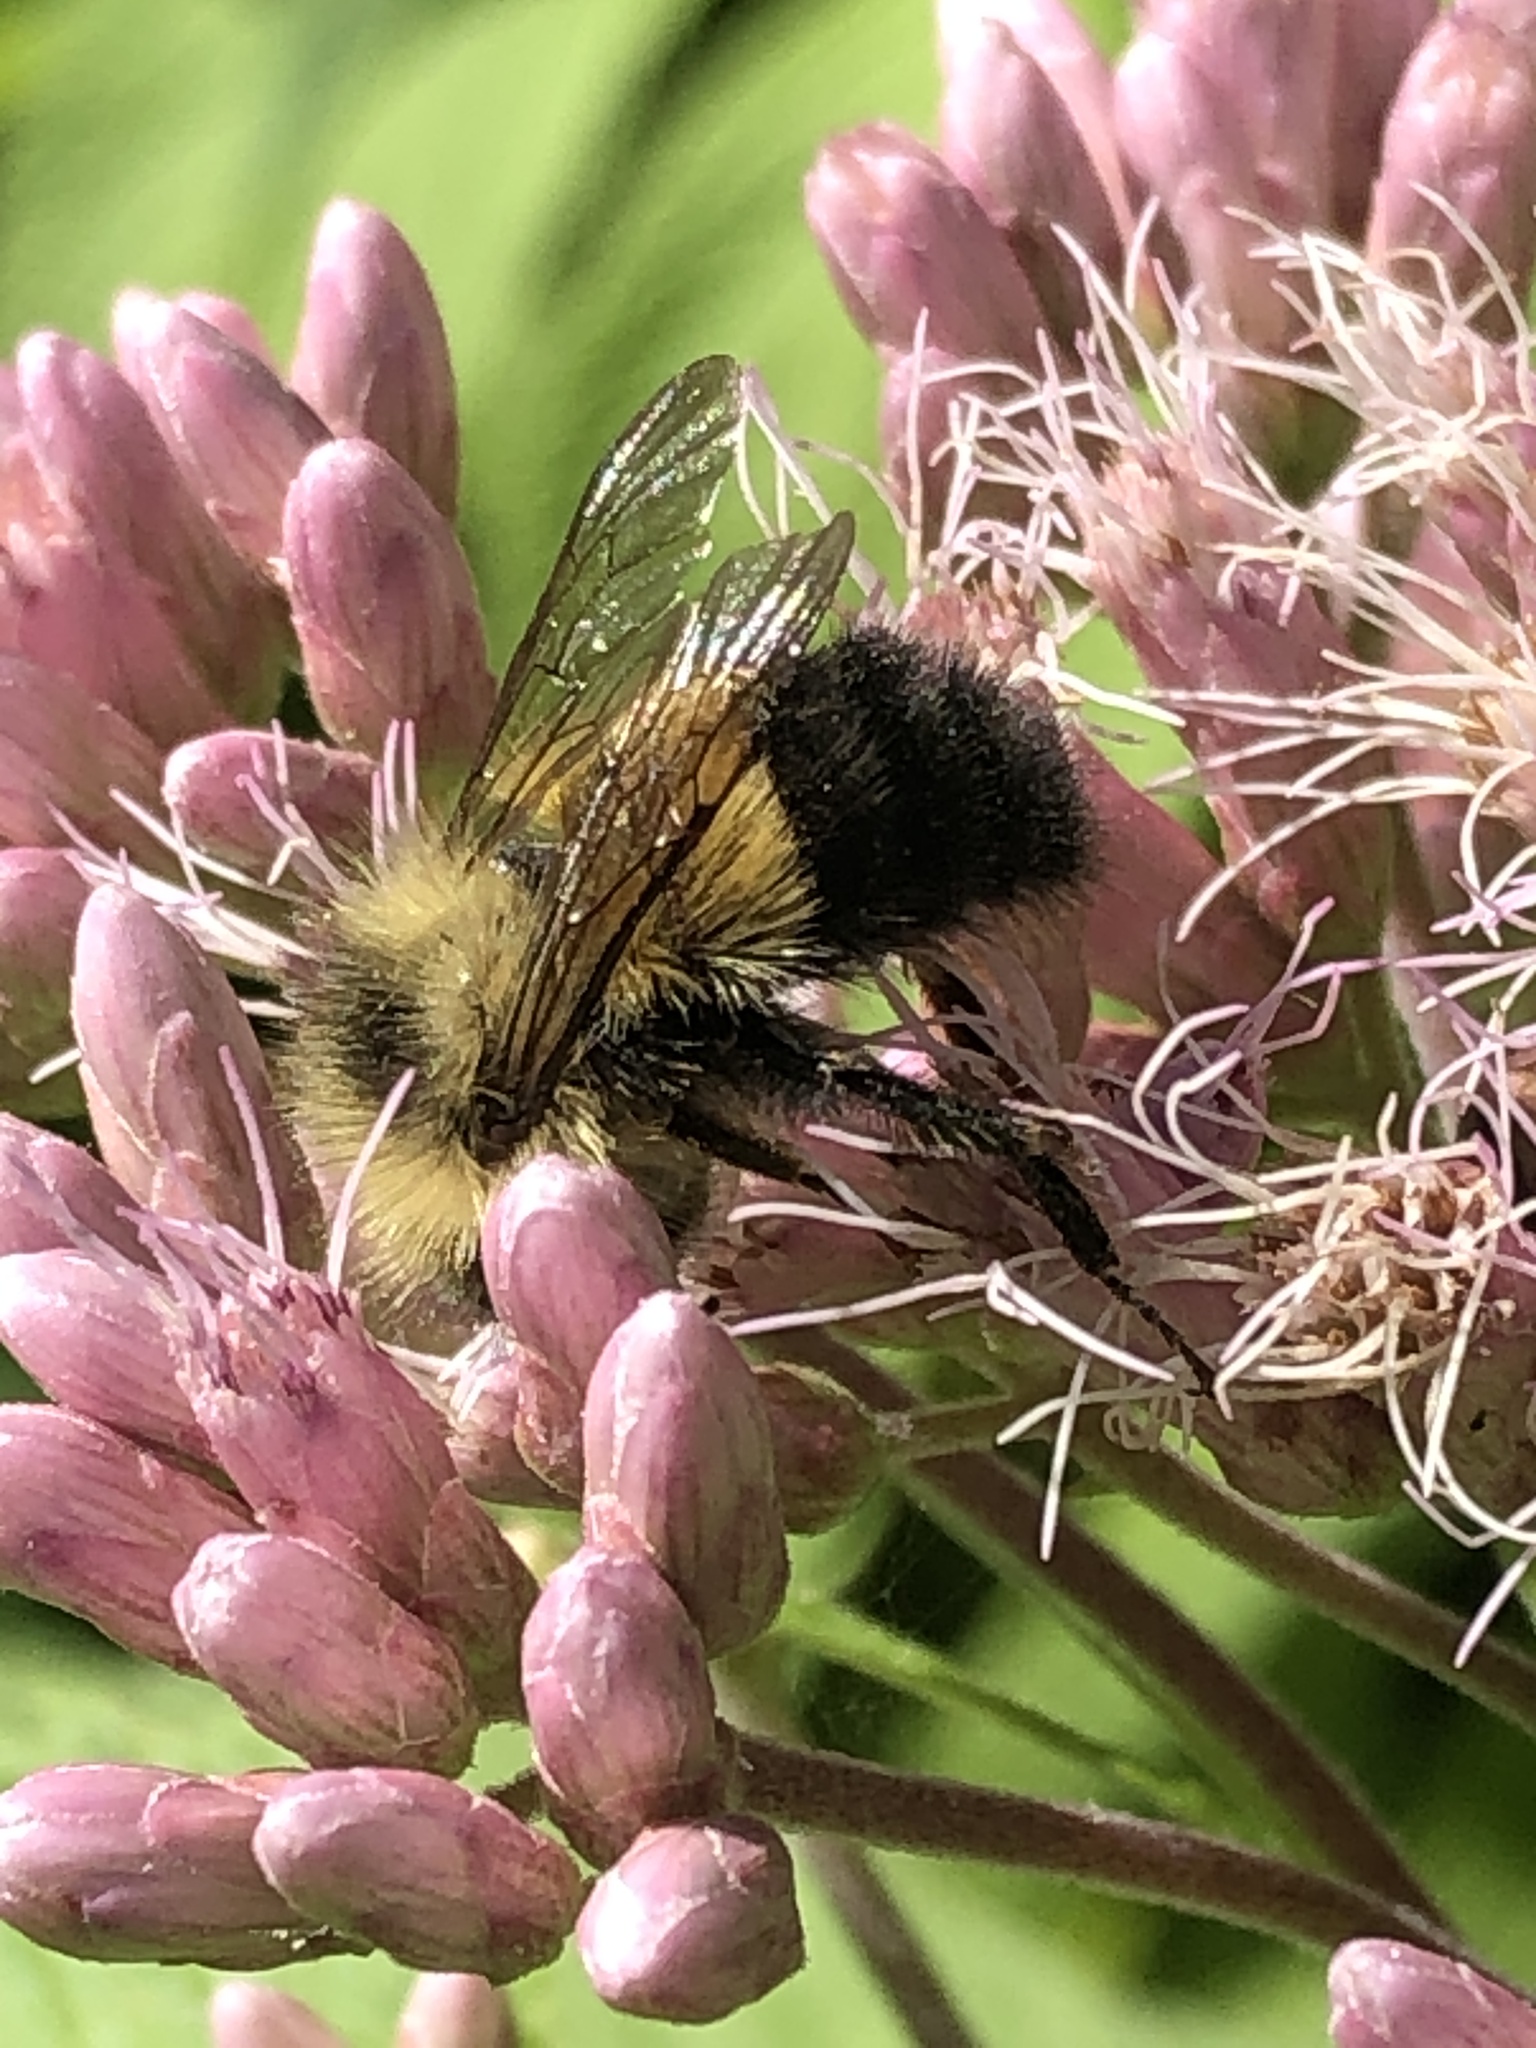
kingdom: Animalia
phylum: Arthropoda
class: Insecta
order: Hymenoptera
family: Apidae
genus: Pyrobombus
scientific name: Pyrobombus
